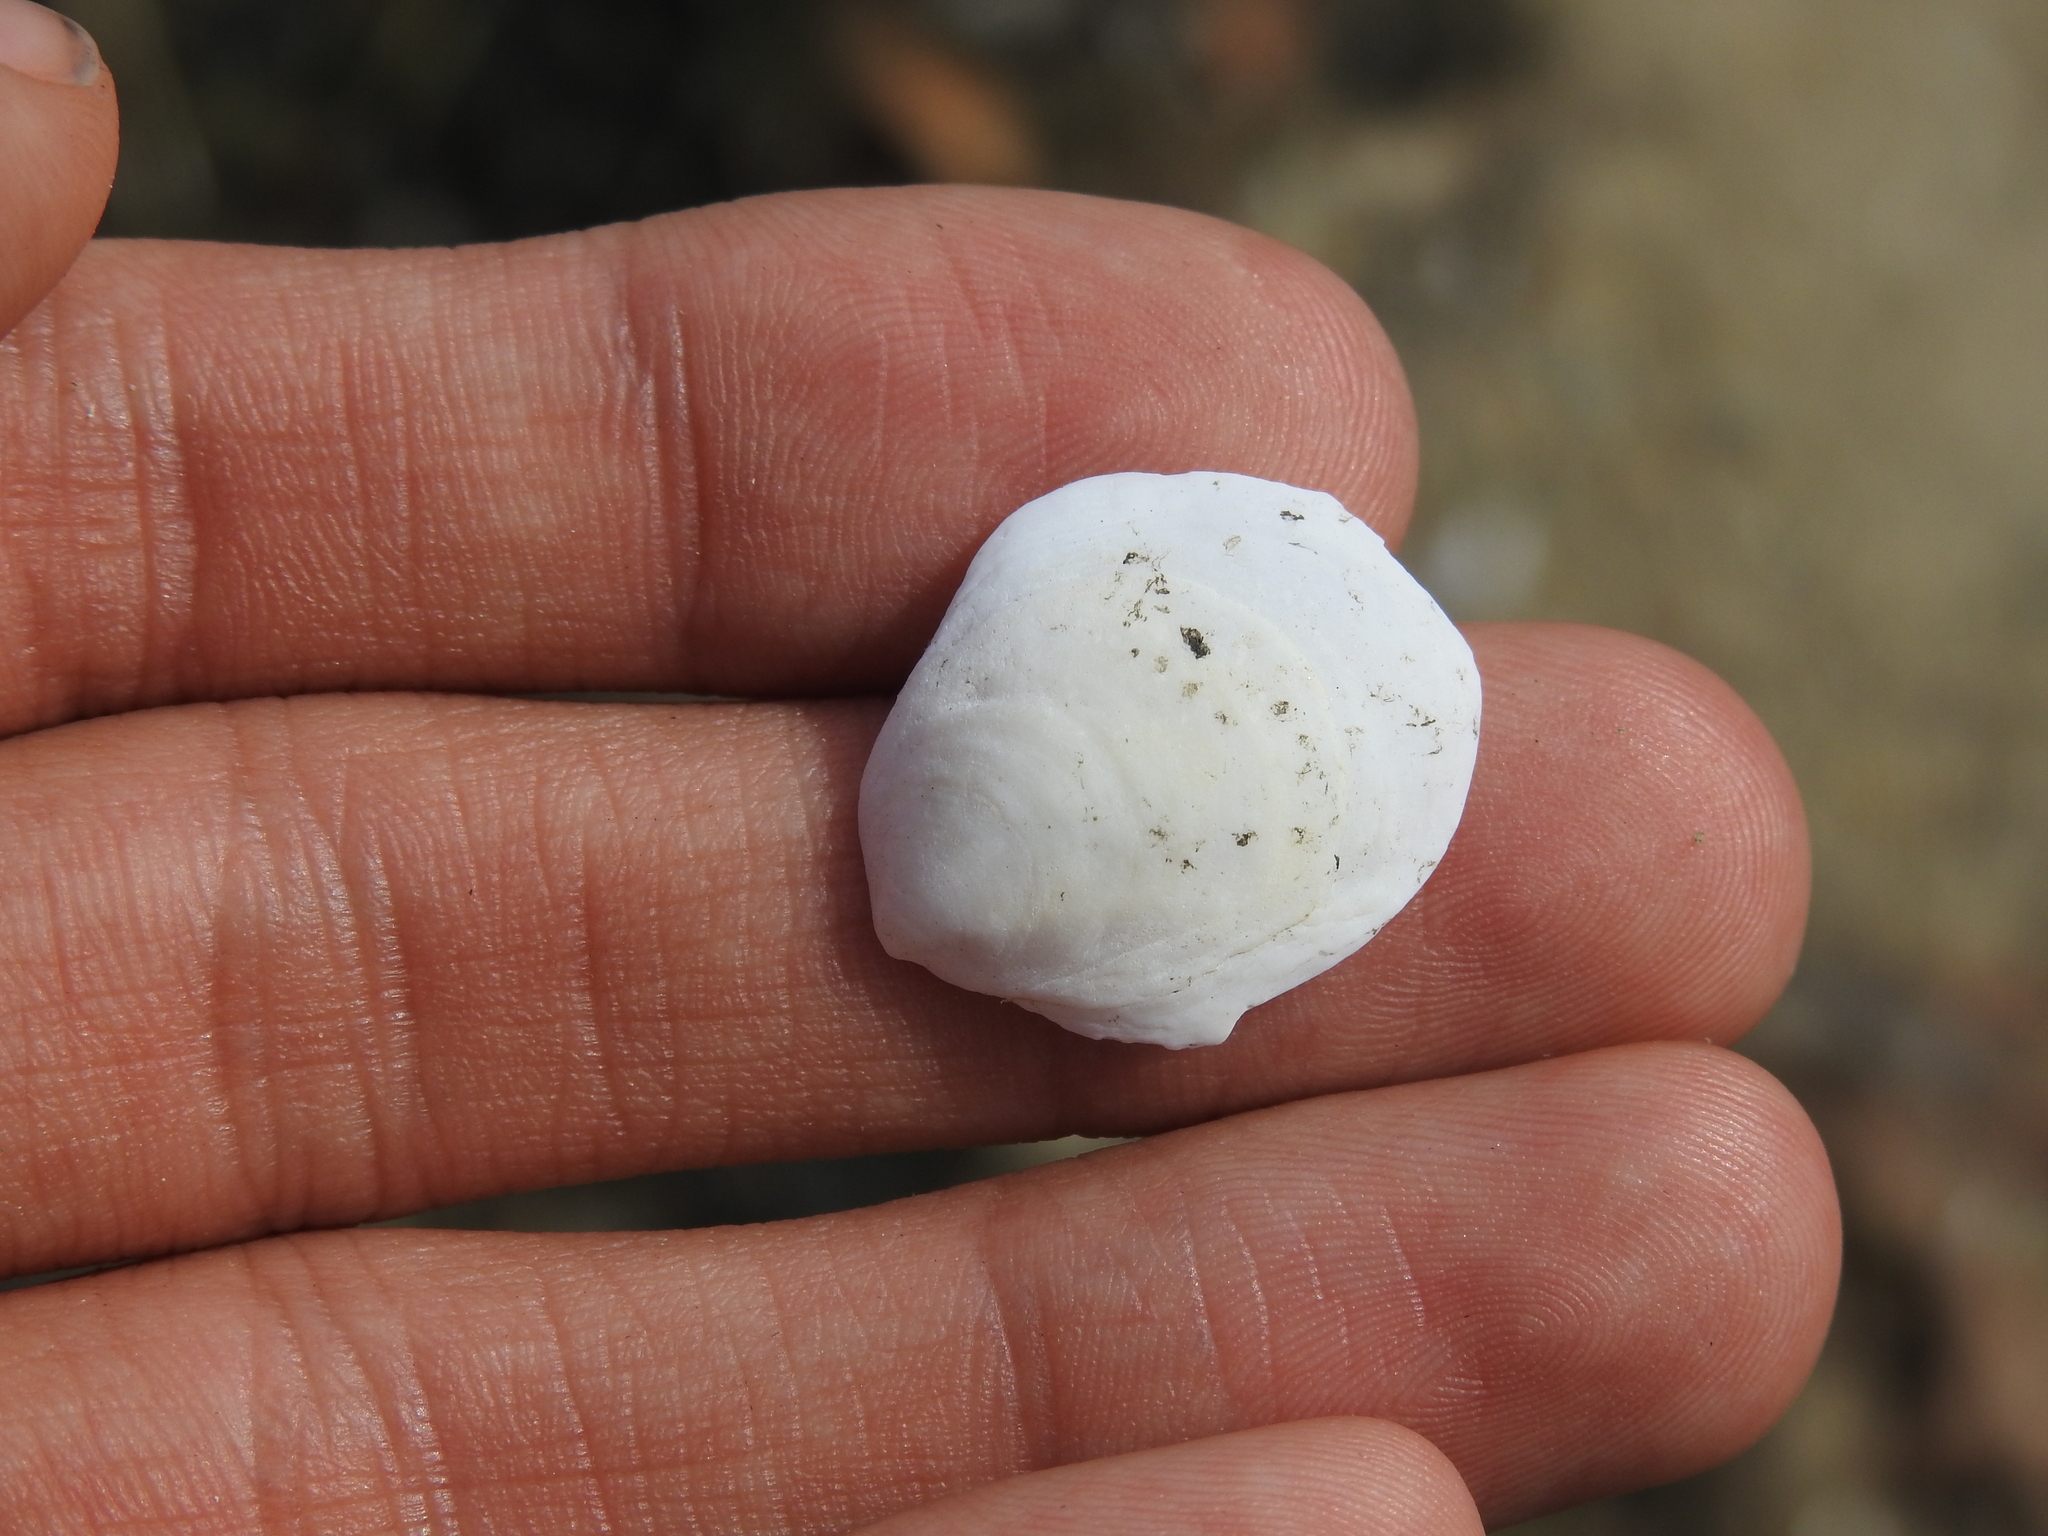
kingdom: Animalia
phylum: Mollusca
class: Gastropoda
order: Littorinimorpha
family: Calyptraeidae
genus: Crepidula
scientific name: Crepidula plana
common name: Eastern white slippersnail
